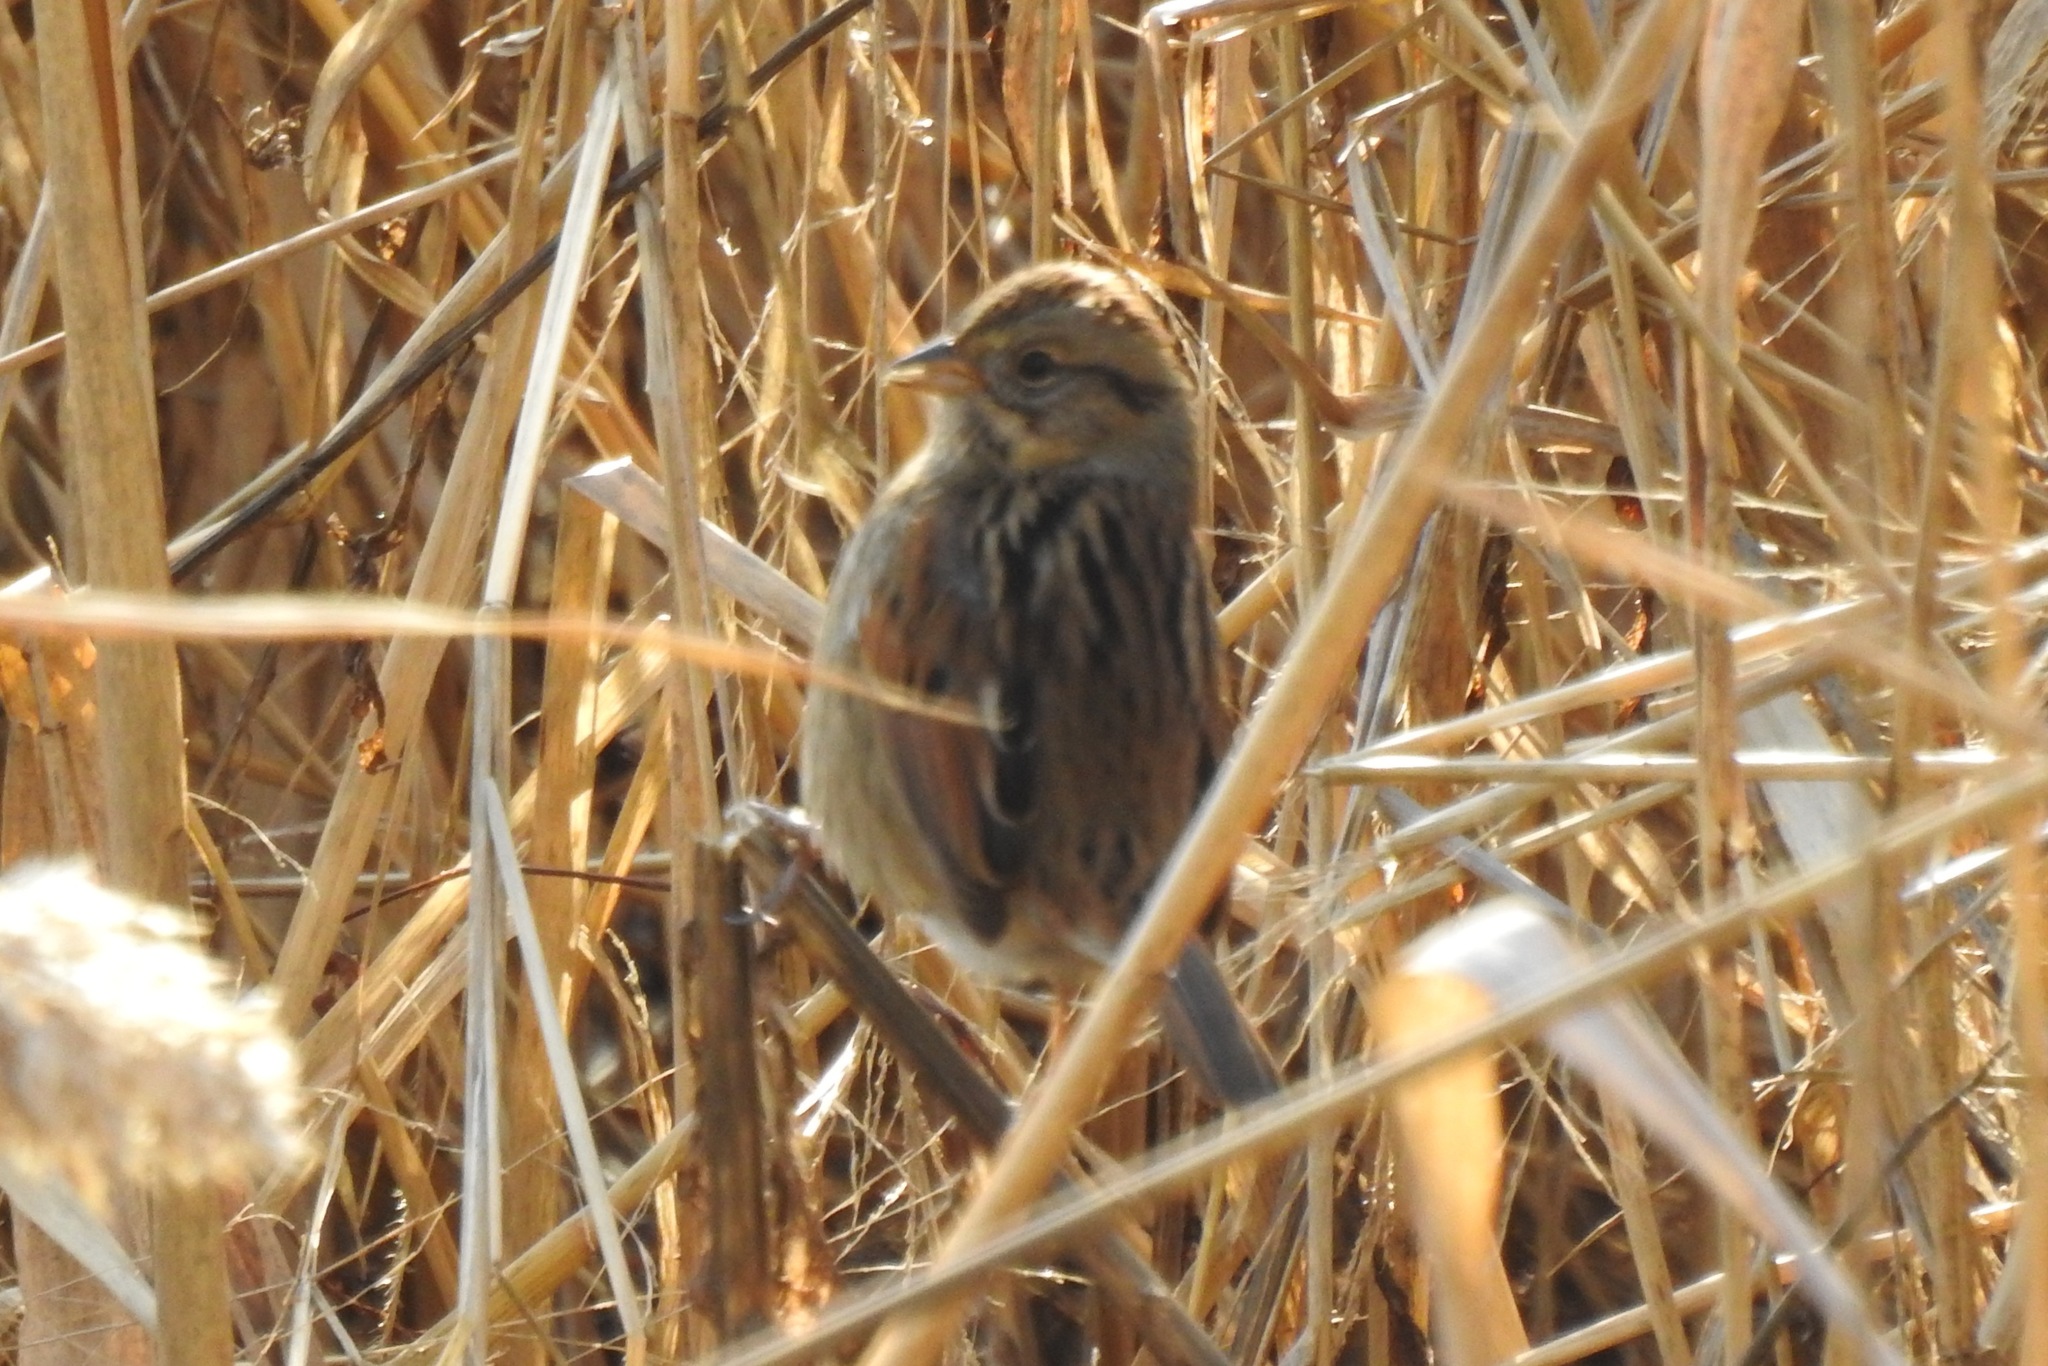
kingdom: Animalia
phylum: Chordata
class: Aves
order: Passeriformes
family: Passerellidae
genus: Melospiza
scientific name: Melospiza georgiana
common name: Swamp sparrow
